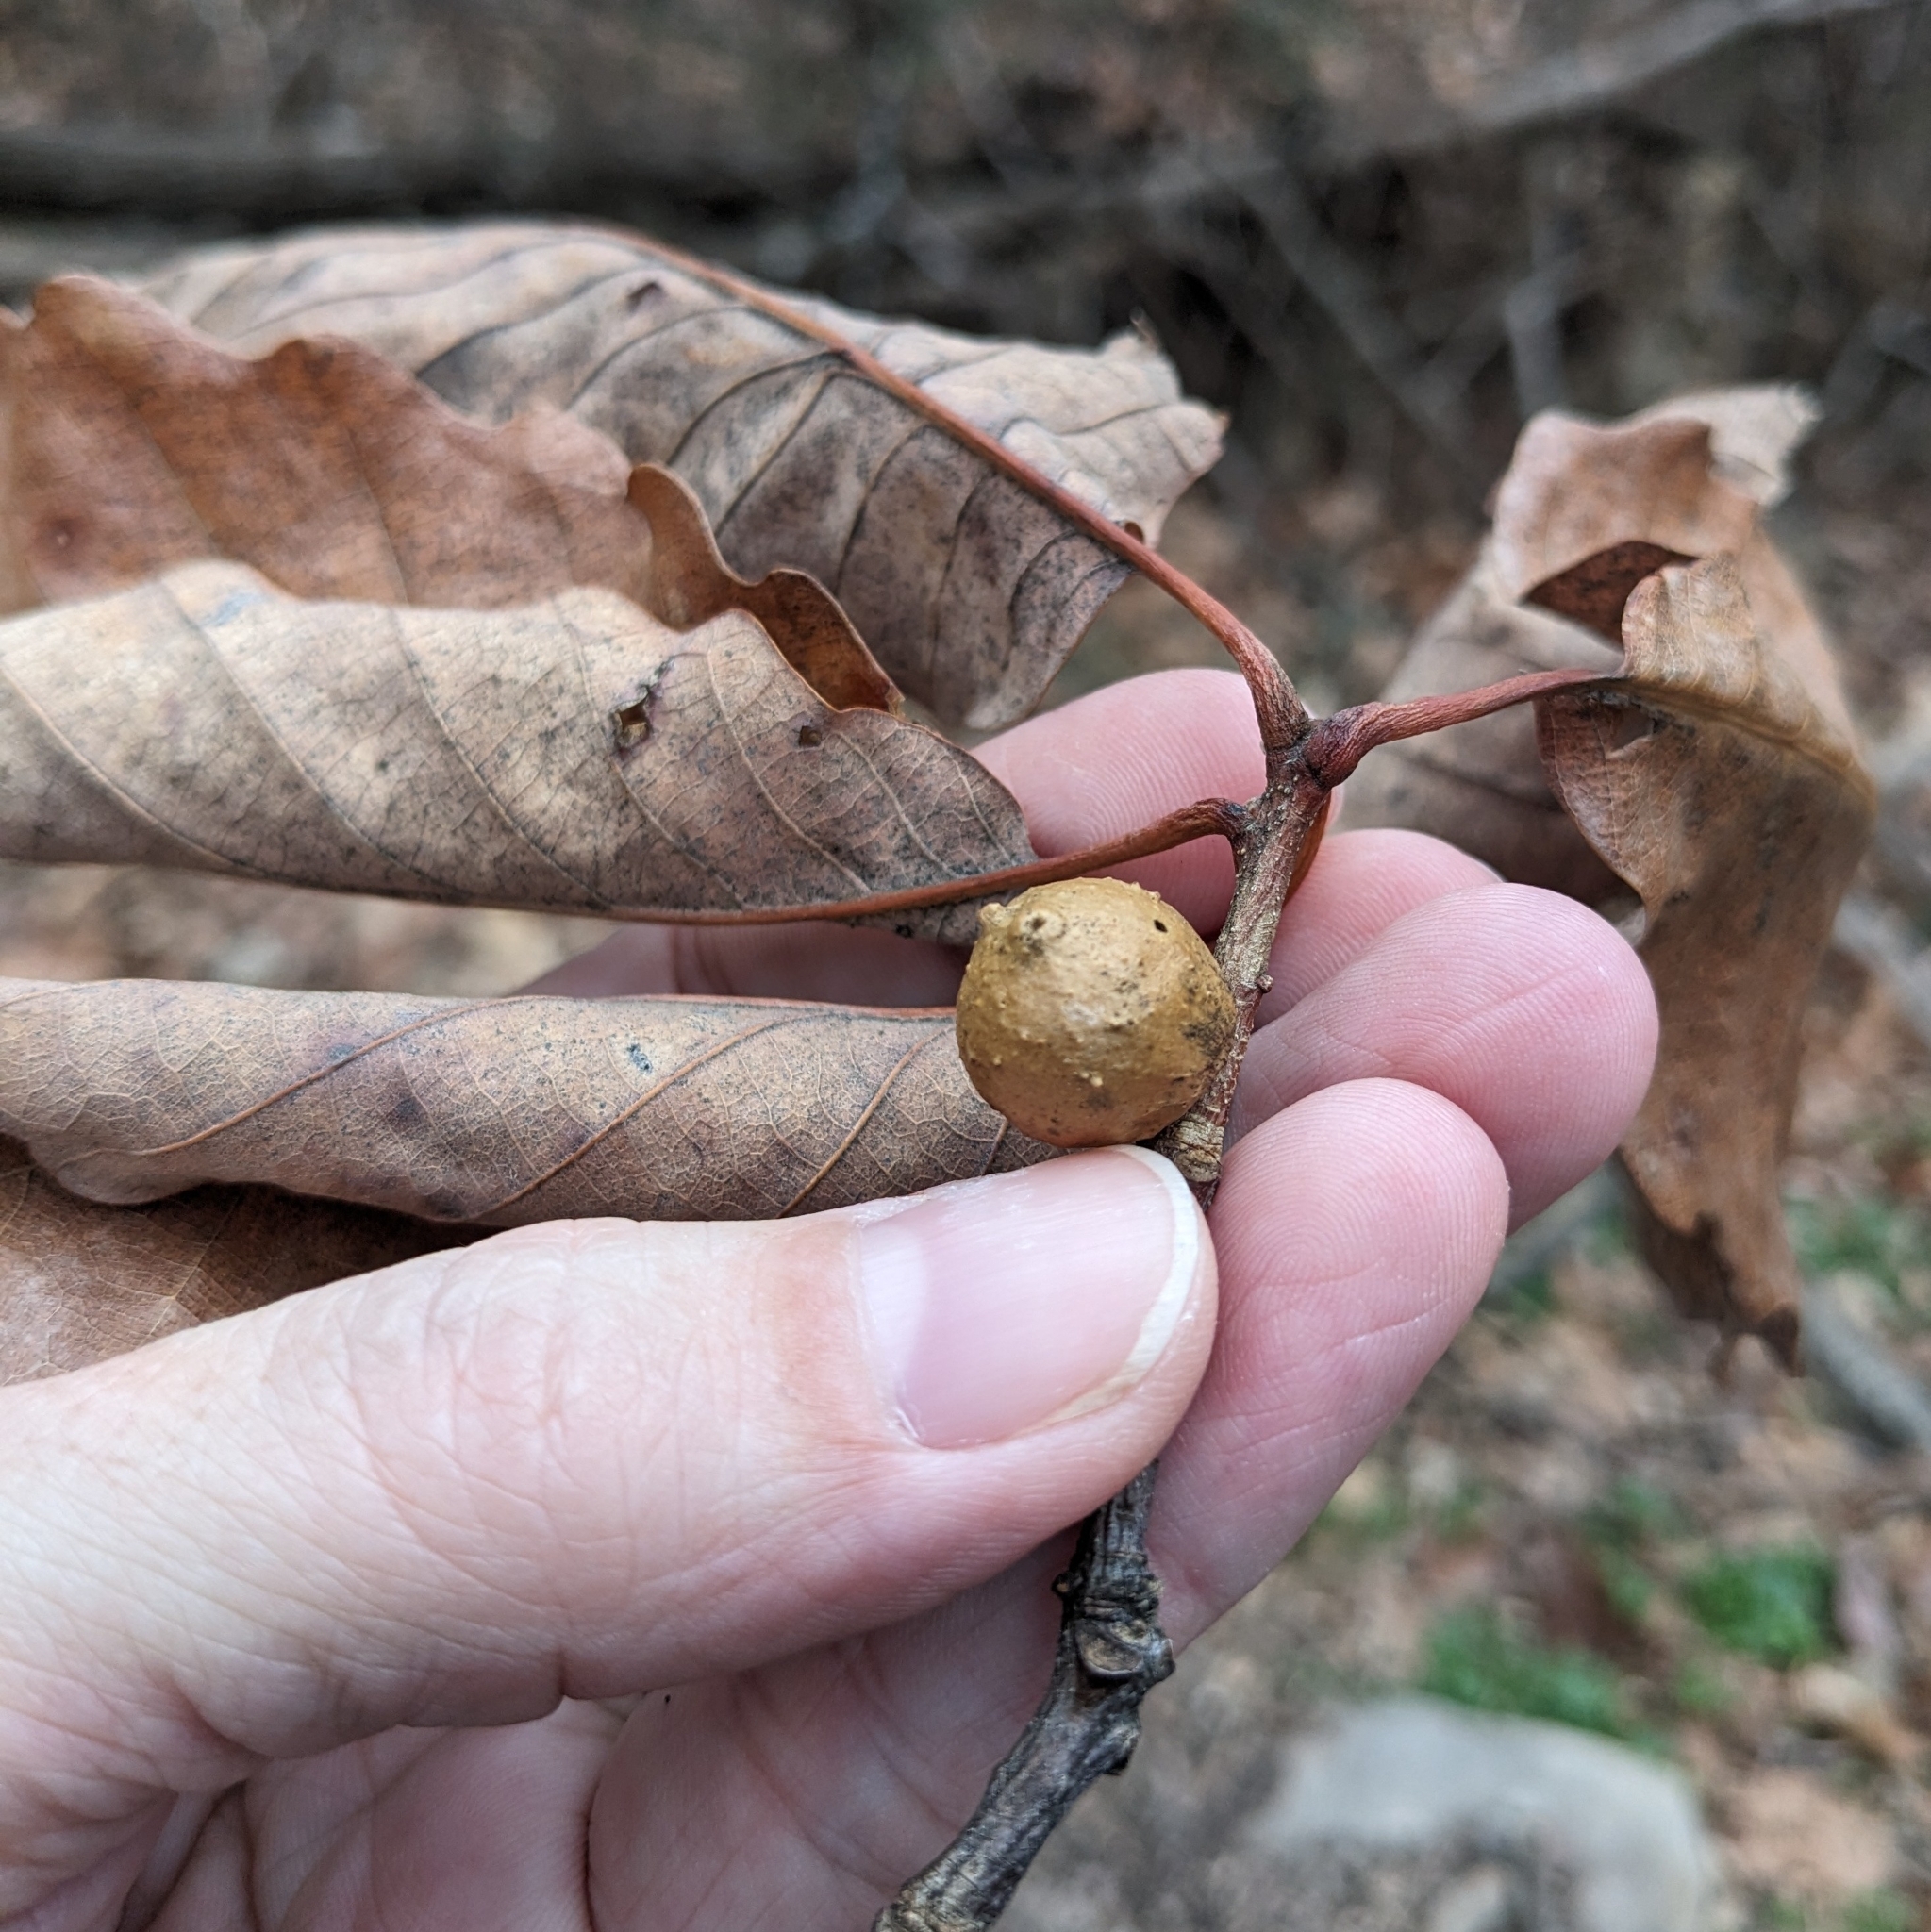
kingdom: Animalia
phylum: Arthropoda
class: Insecta
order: Hymenoptera
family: Cynipidae
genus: Disholcaspis
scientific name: Disholcaspis quercusglobulus
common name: Round bullet gall wasp
